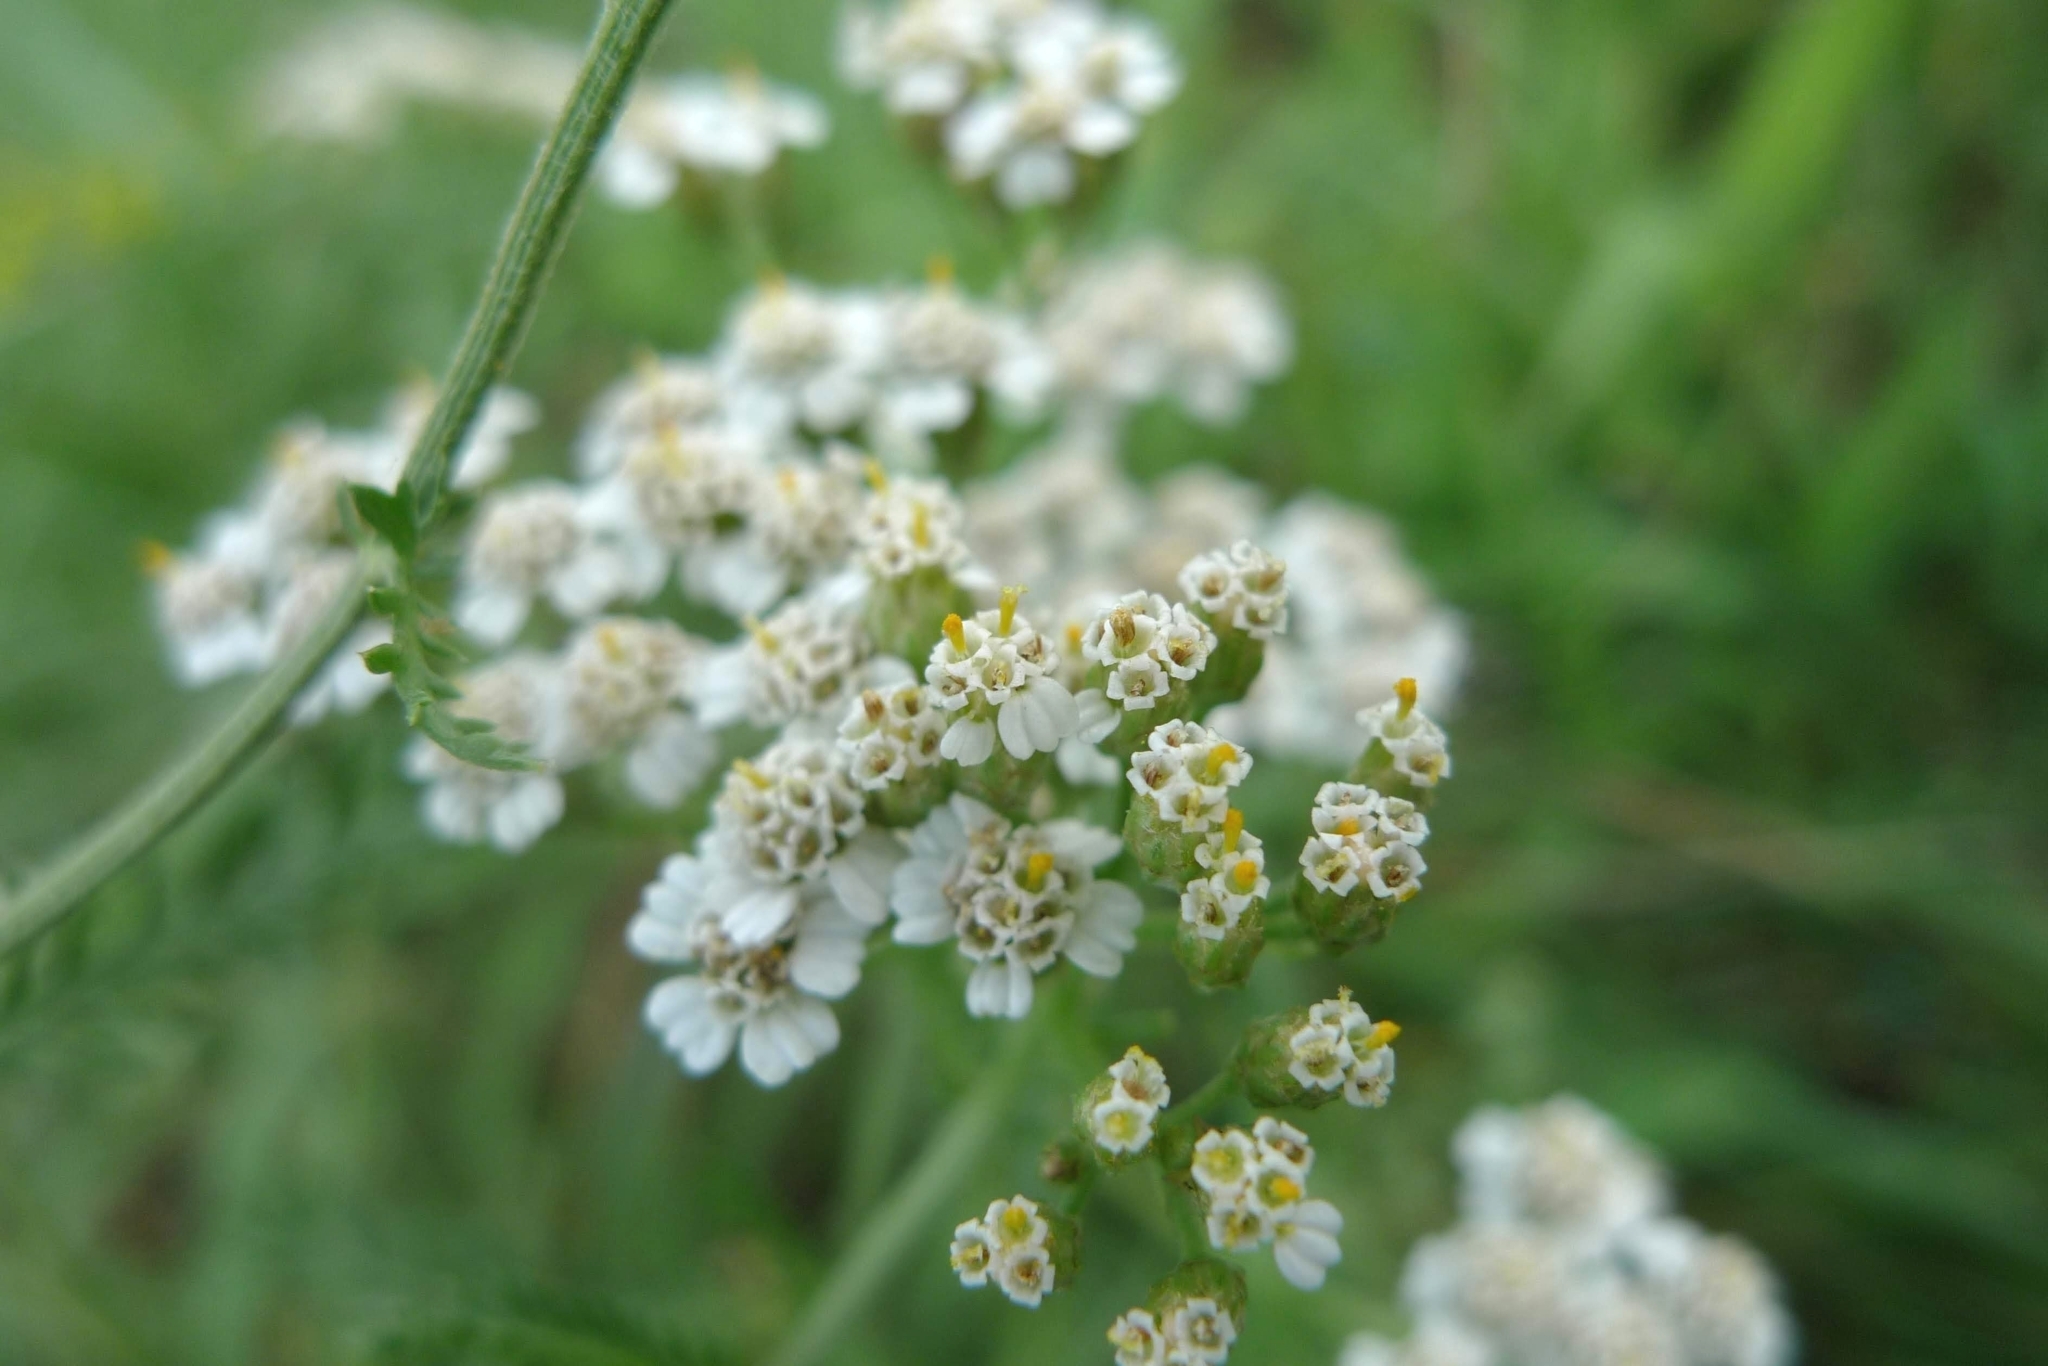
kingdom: Plantae
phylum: Tracheophyta
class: Magnoliopsida
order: Asterales
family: Asteraceae
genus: Achillea
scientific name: Achillea millefolium
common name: Yarrow
